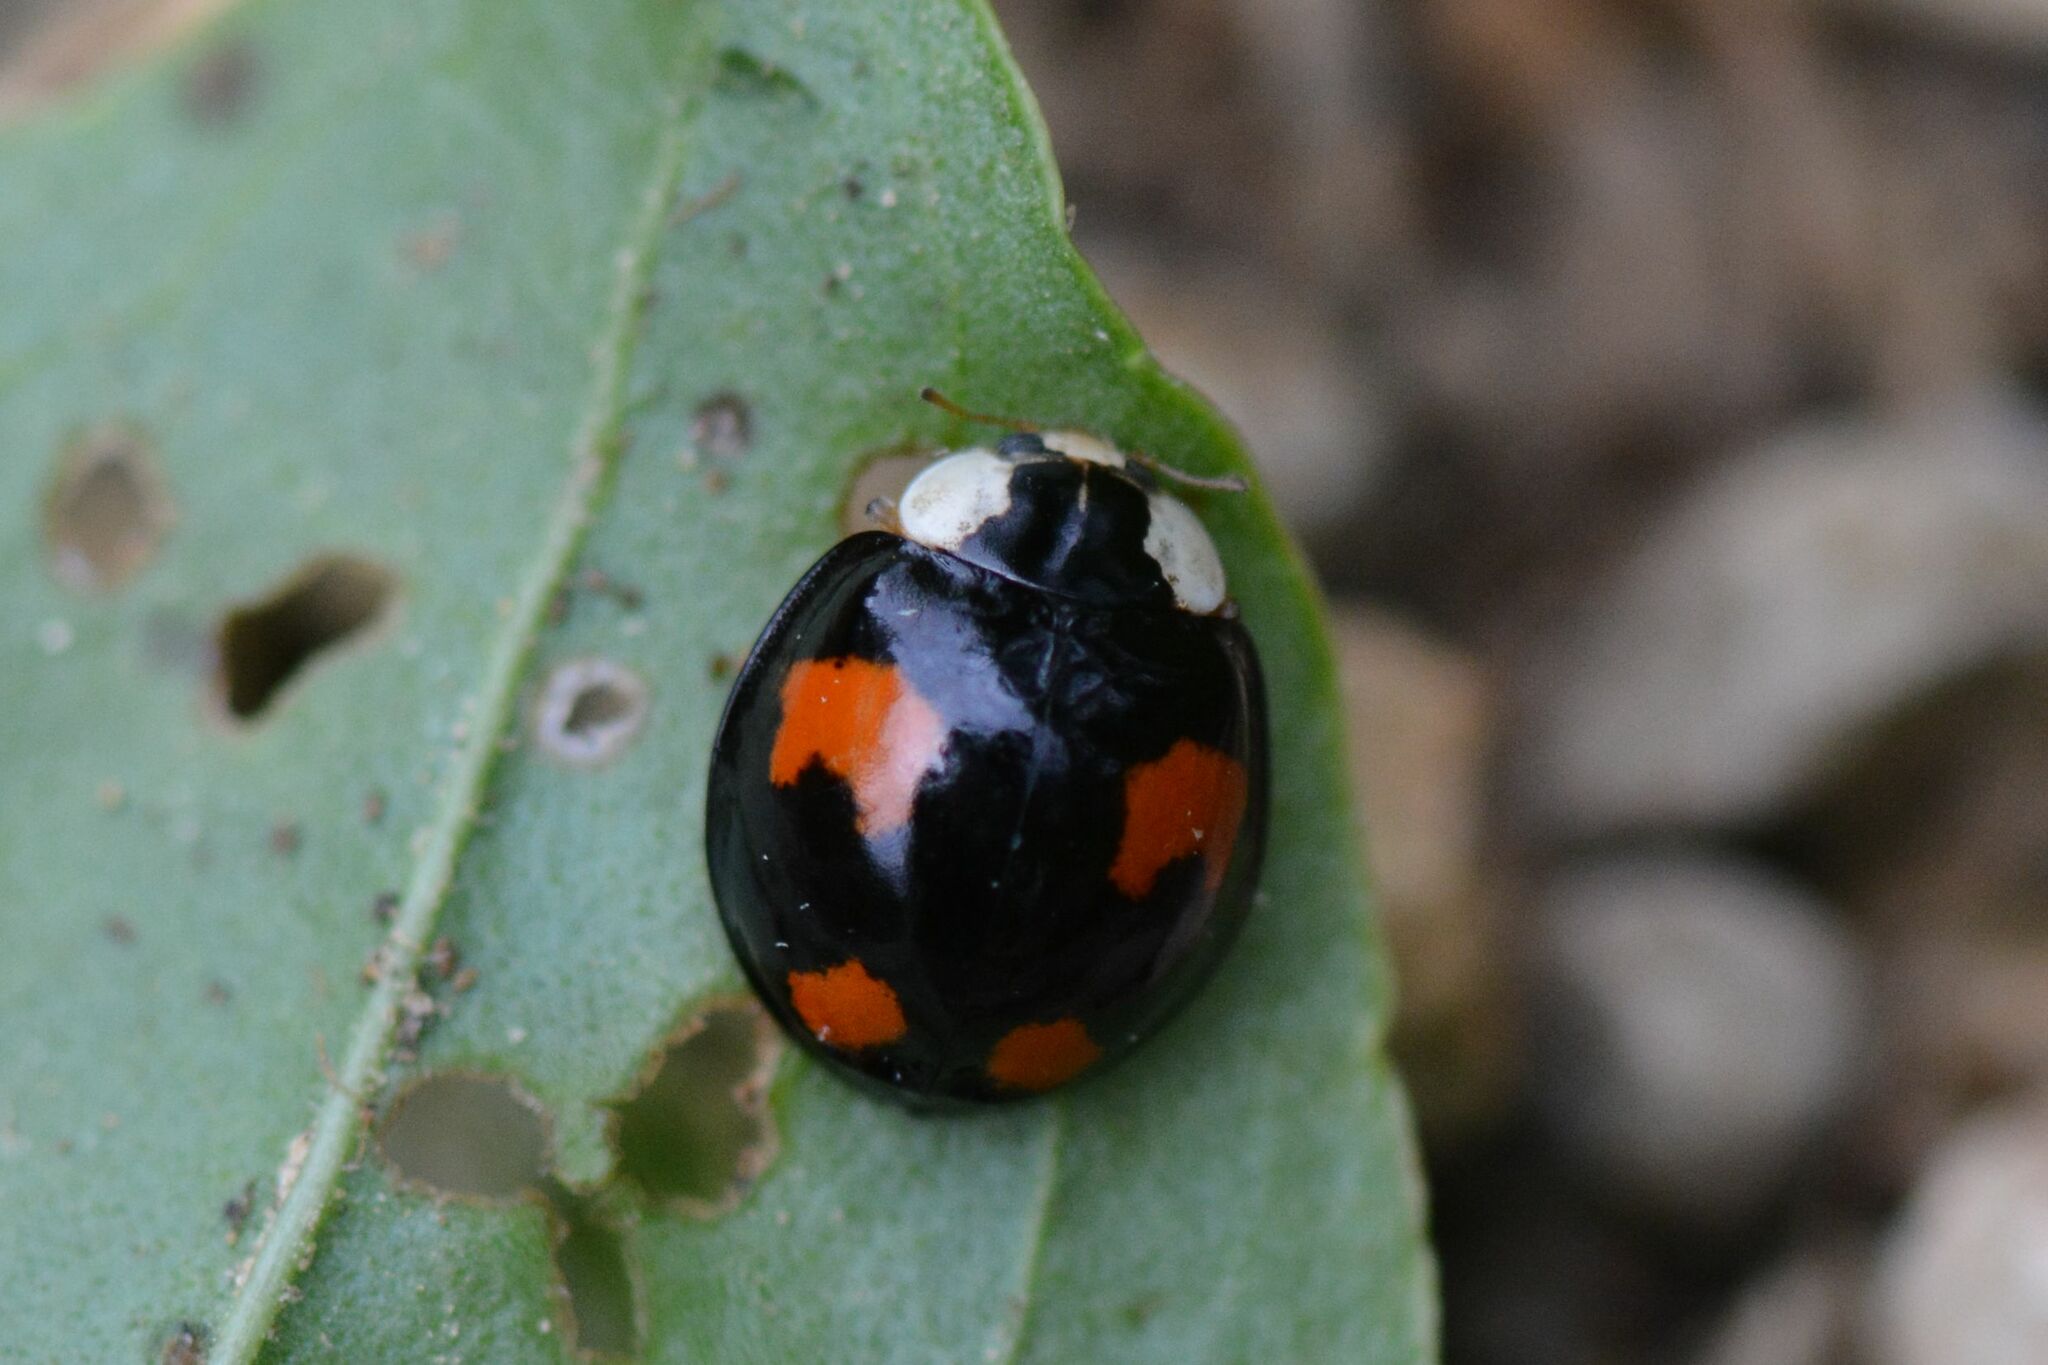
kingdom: Animalia
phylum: Arthropoda
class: Insecta
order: Coleoptera
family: Coccinellidae
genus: Harmonia
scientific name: Harmonia axyridis
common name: Harlequin ladybird
